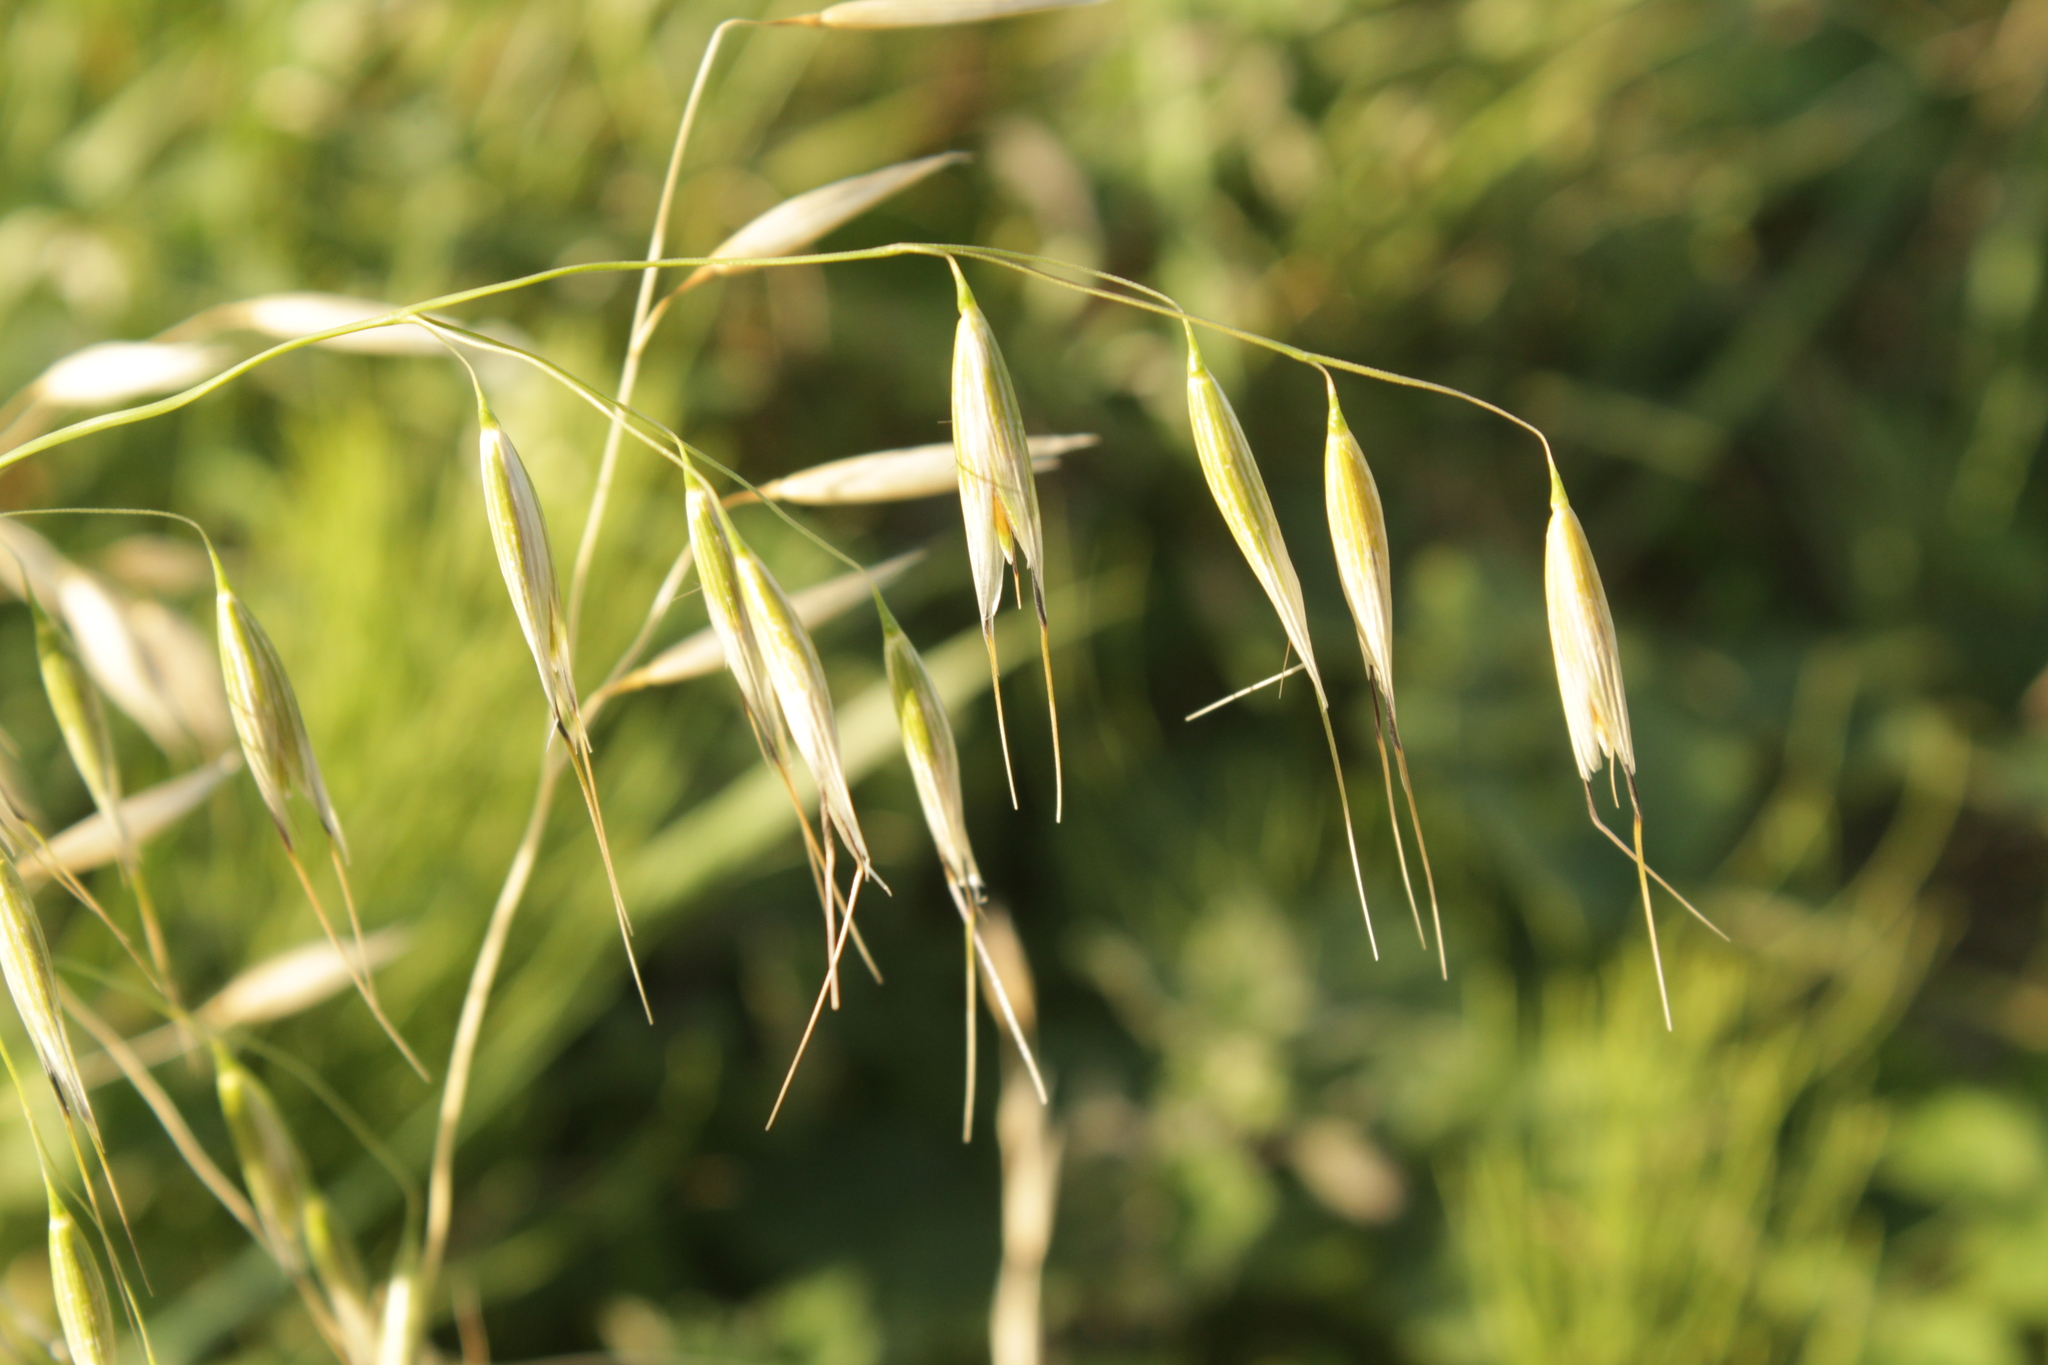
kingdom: Plantae
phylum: Tracheophyta
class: Liliopsida
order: Poales
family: Poaceae
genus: Avena
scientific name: Avena fatua
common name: Wild oat
